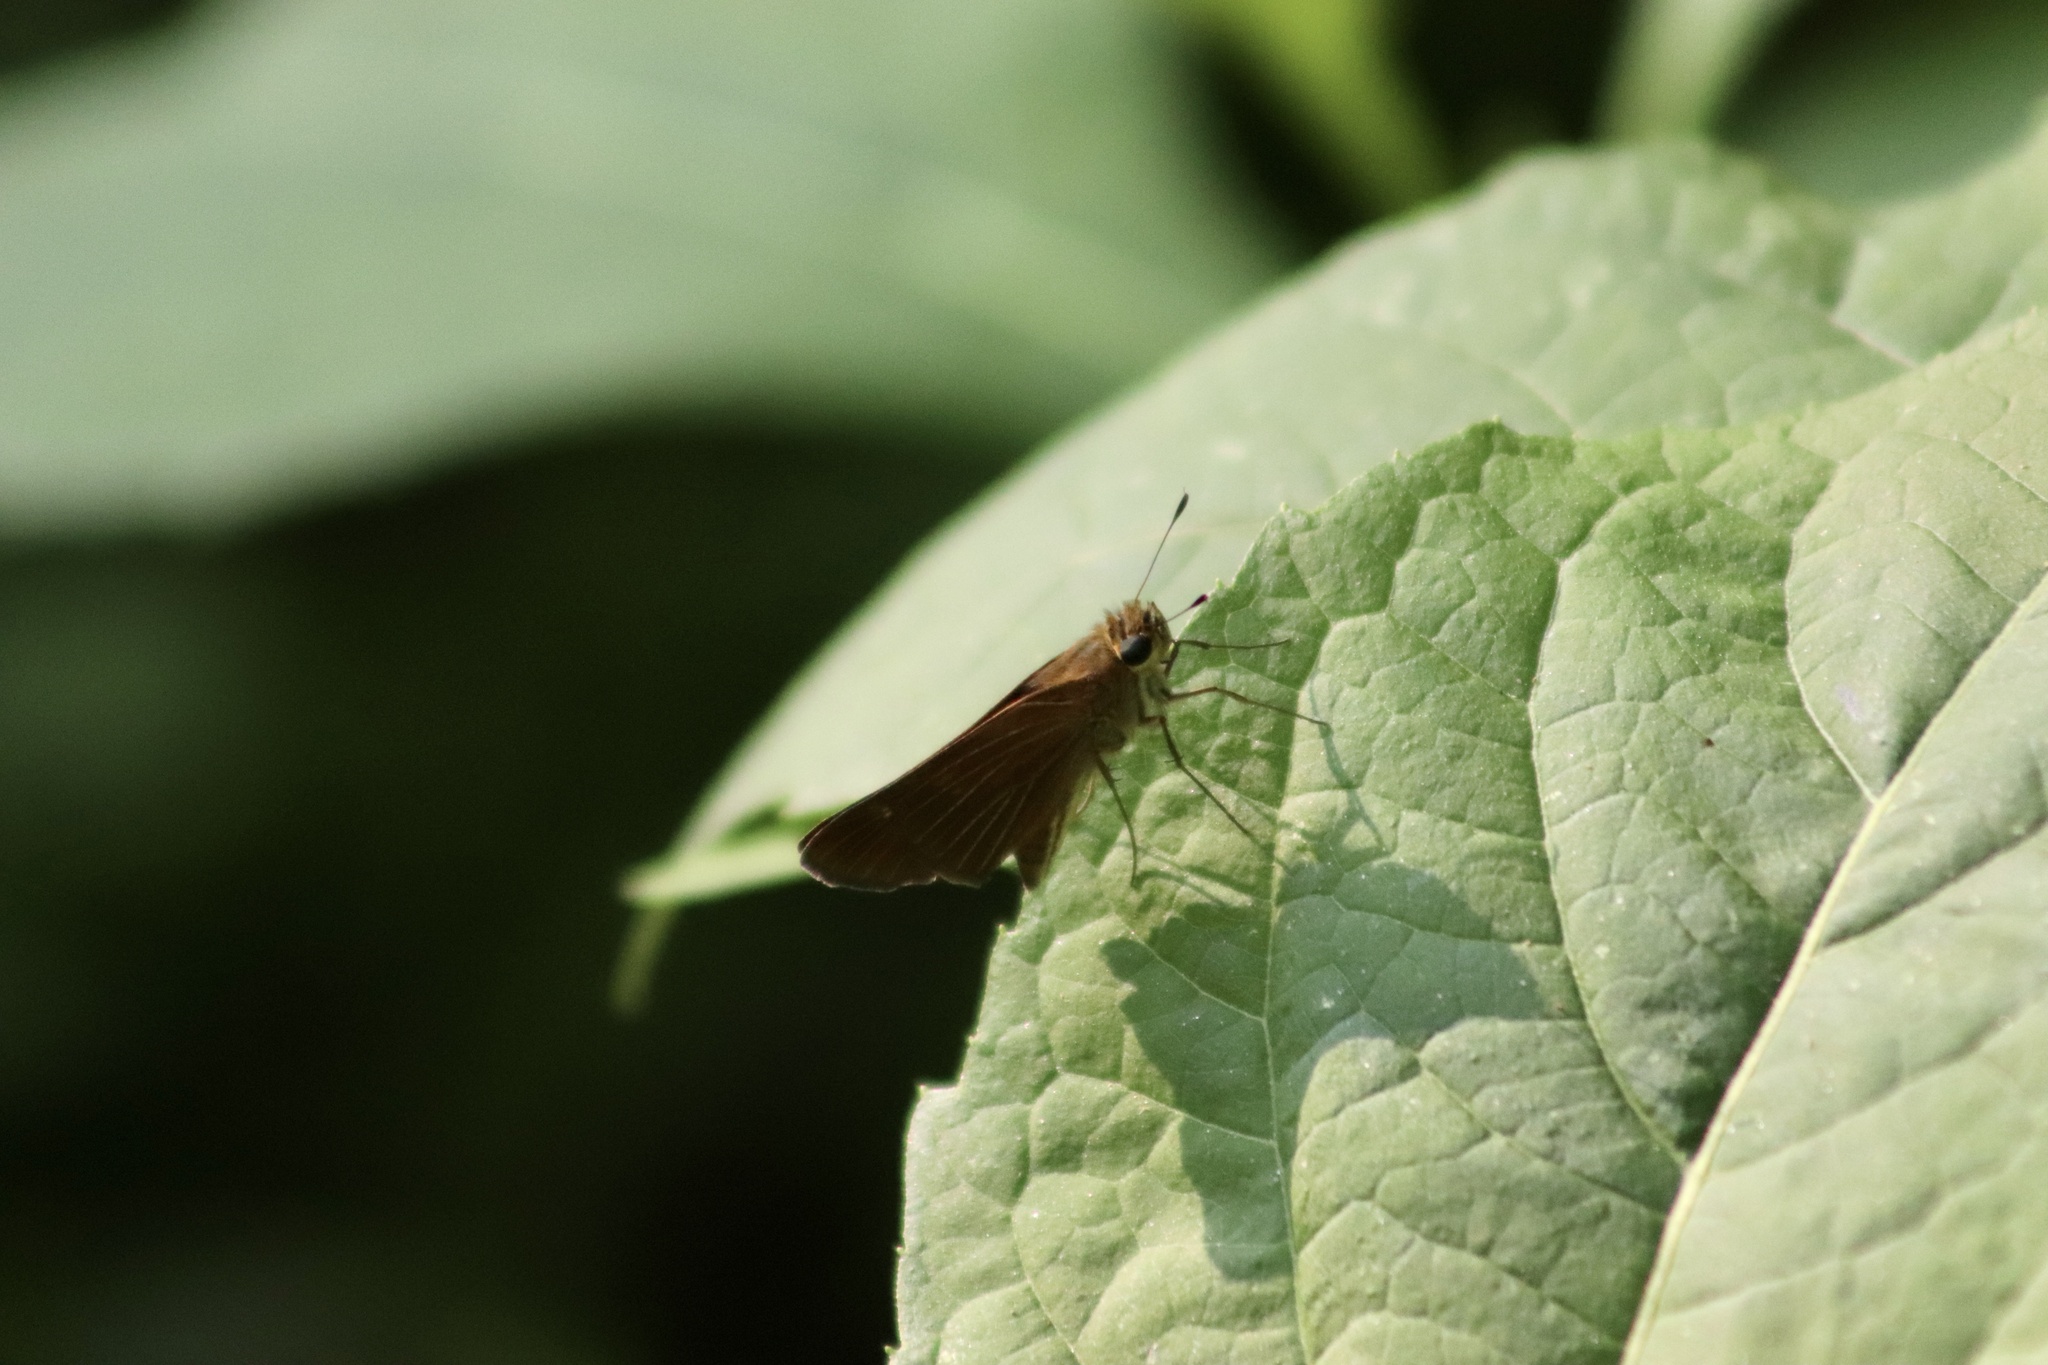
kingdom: Animalia
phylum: Arthropoda
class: Insecta
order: Lepidoptera
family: Hesperiidae
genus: Panoquina
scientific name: Panoquina ocola
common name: Ocola skipper
